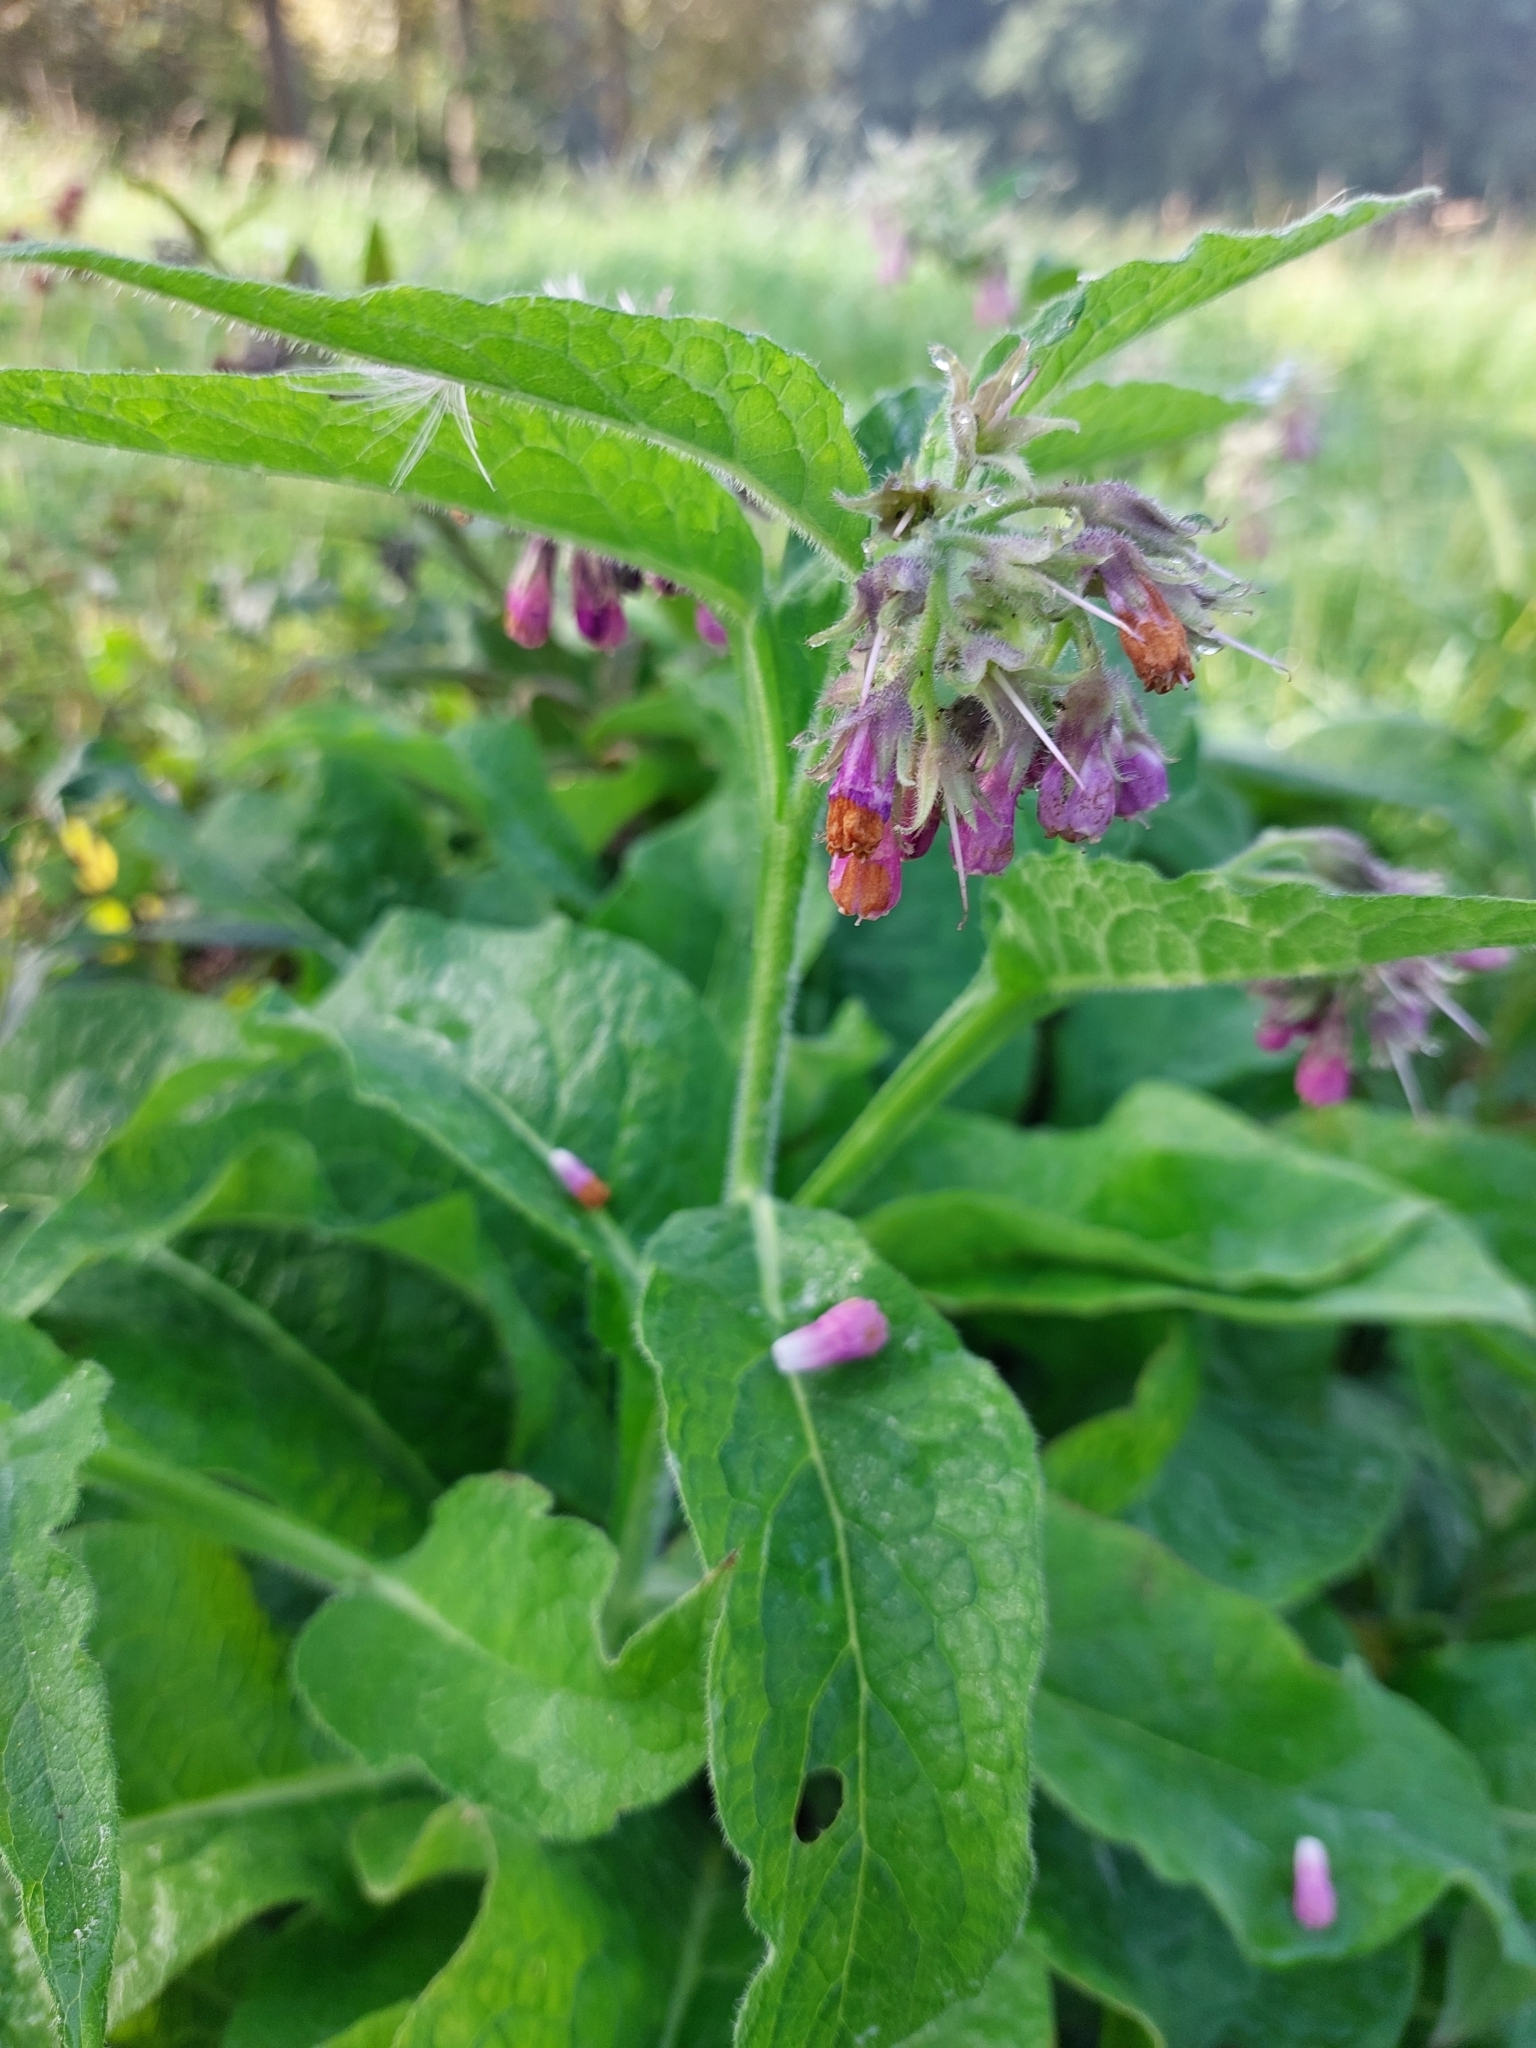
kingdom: Plantae
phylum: Tracheophyta
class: Magnoliopsida
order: Boraginales
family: Boraginaceae
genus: Symphytum
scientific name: Symphytum officinale
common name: Common comfrey
